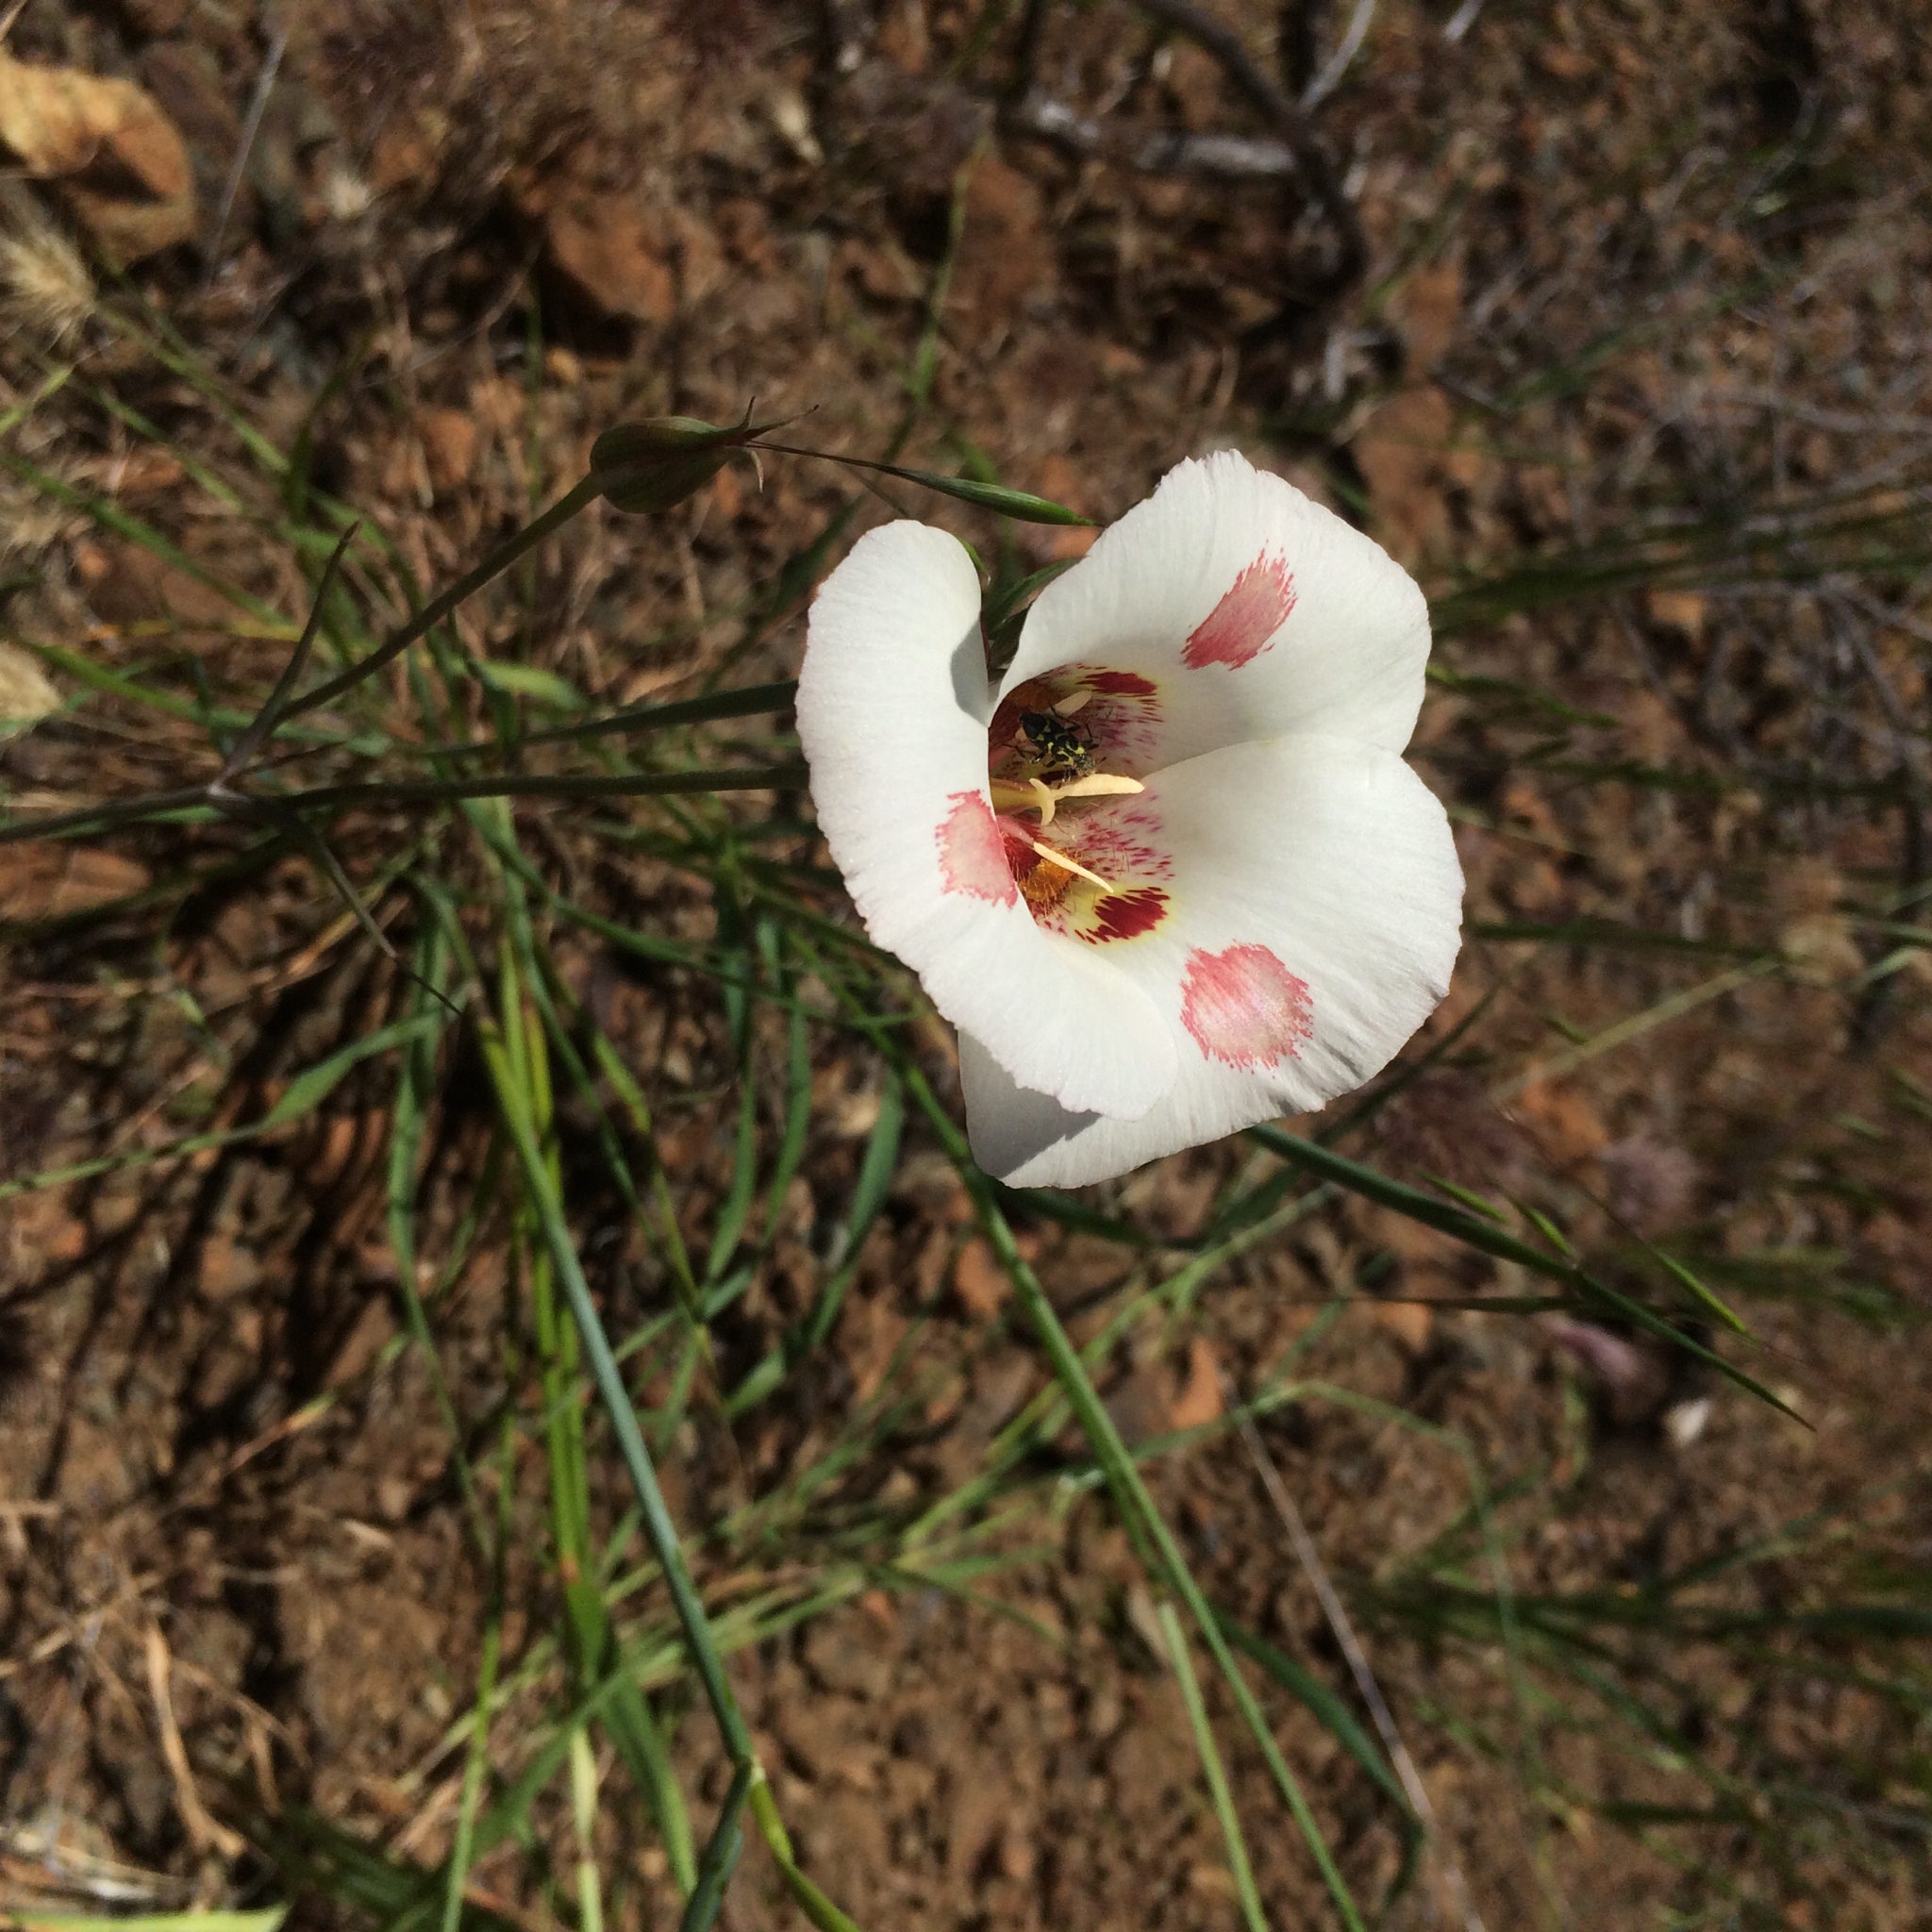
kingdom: Plantae
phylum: Tracheophyta
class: Liliopsida
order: Liliales
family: Liliaceae
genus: Calochortus
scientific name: Calochortus venustus
